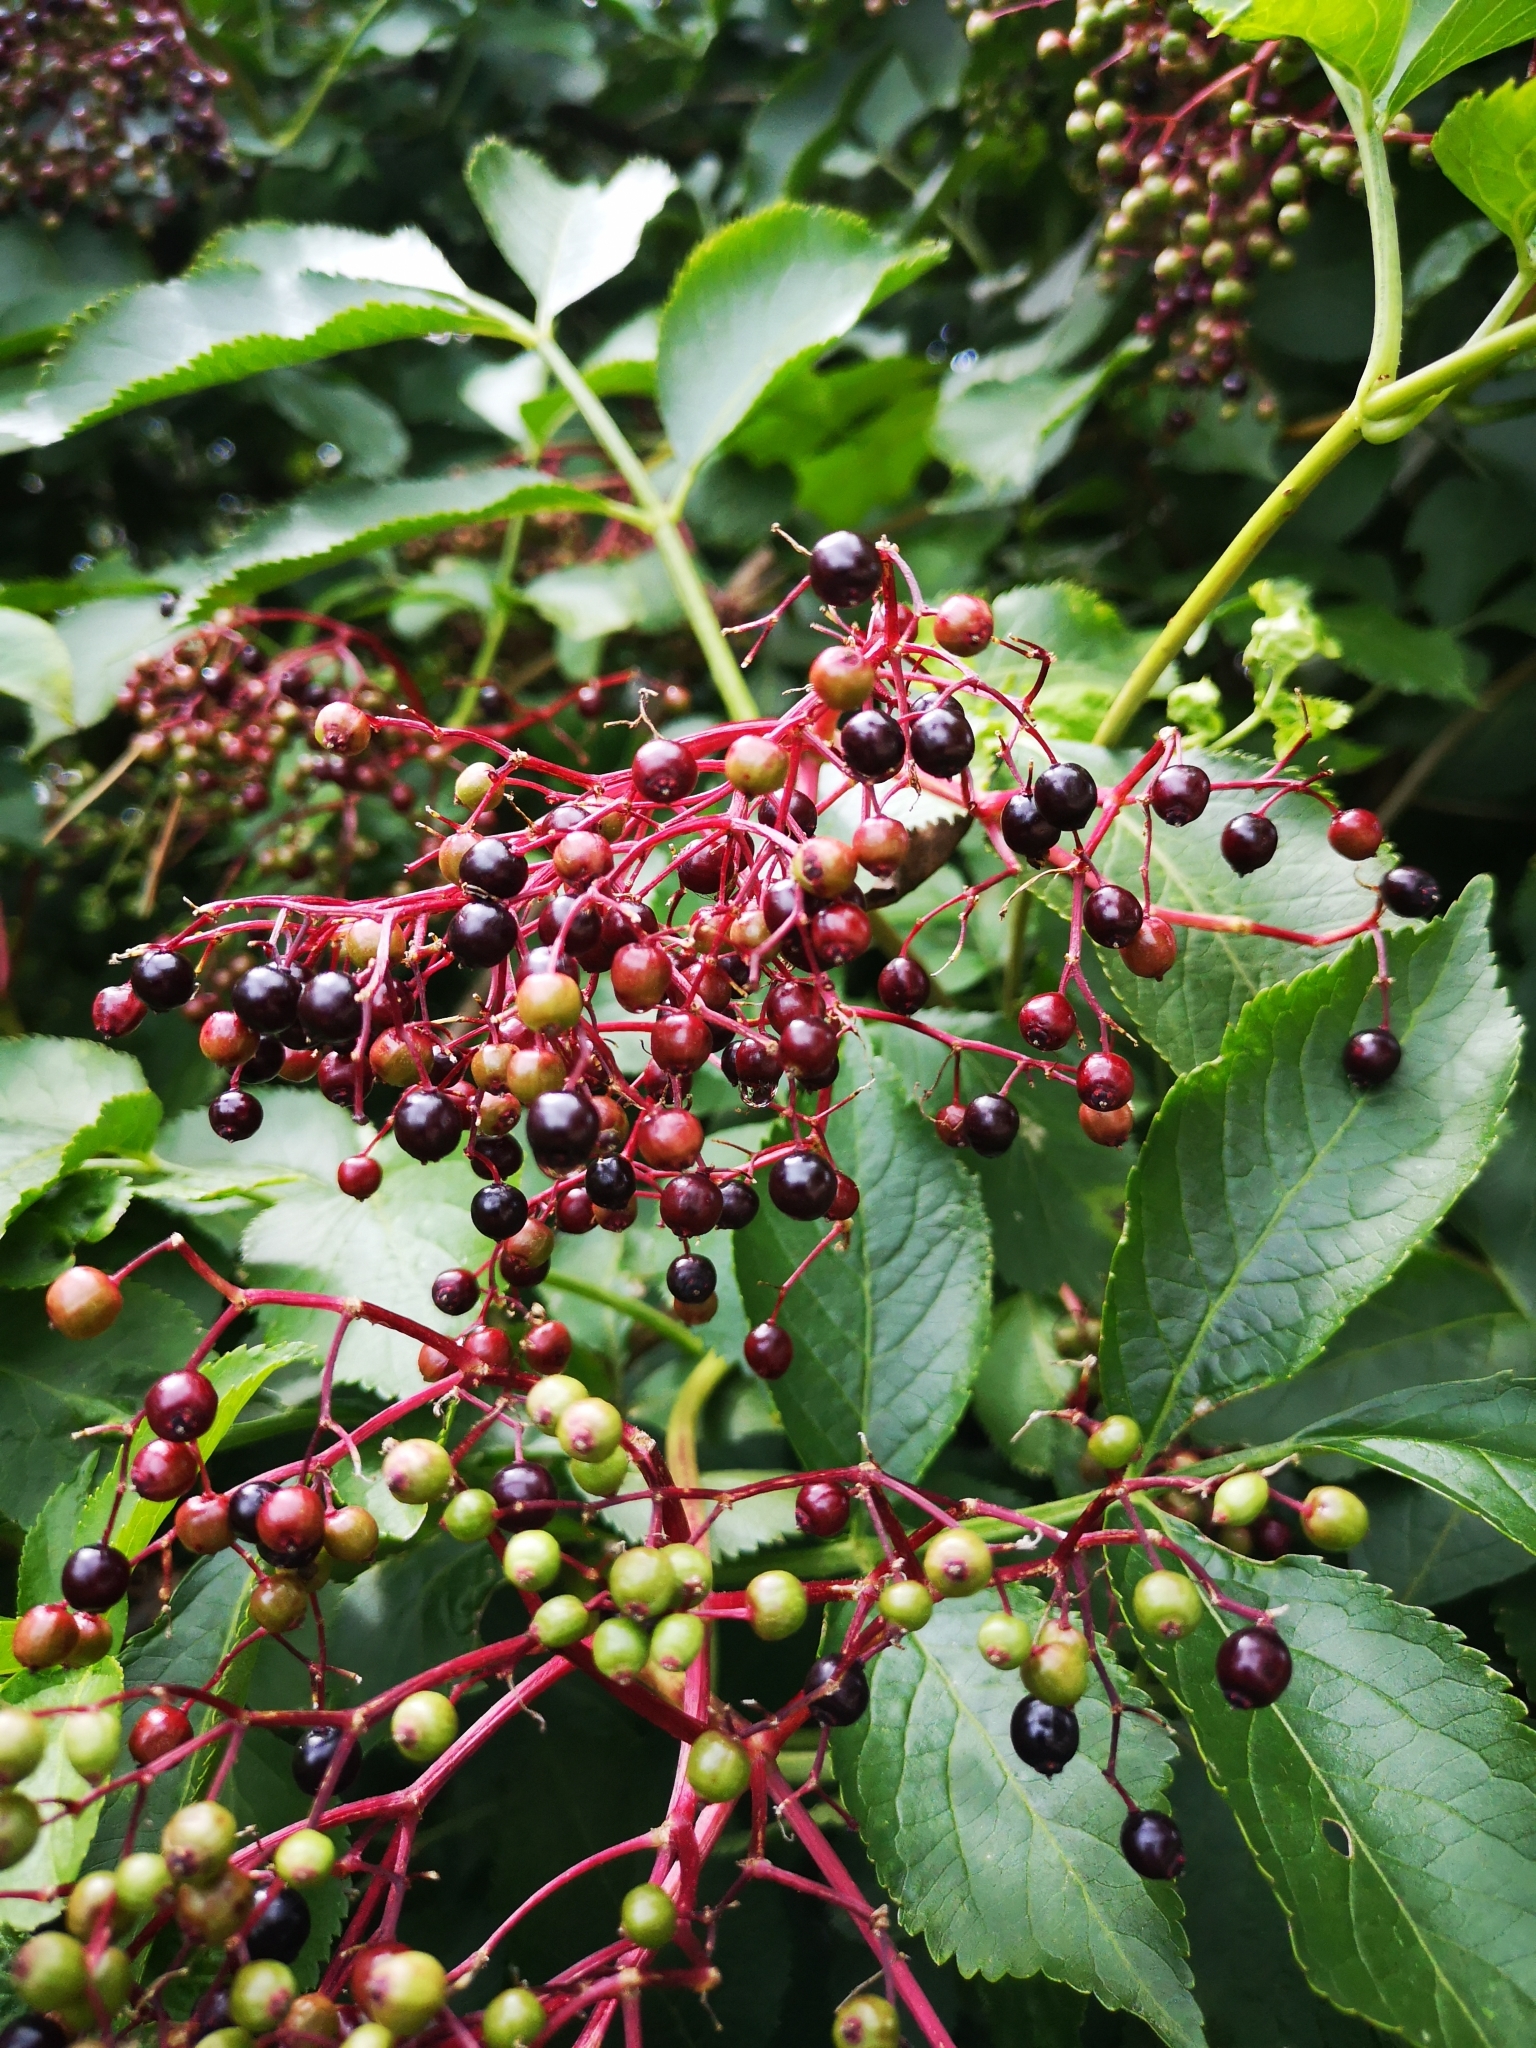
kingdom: Plantae
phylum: Tracheophyta
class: Magnoliopsida
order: Dipsacales
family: Viburnaceae
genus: Sambucus
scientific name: Sambucus nigra
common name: Elder
